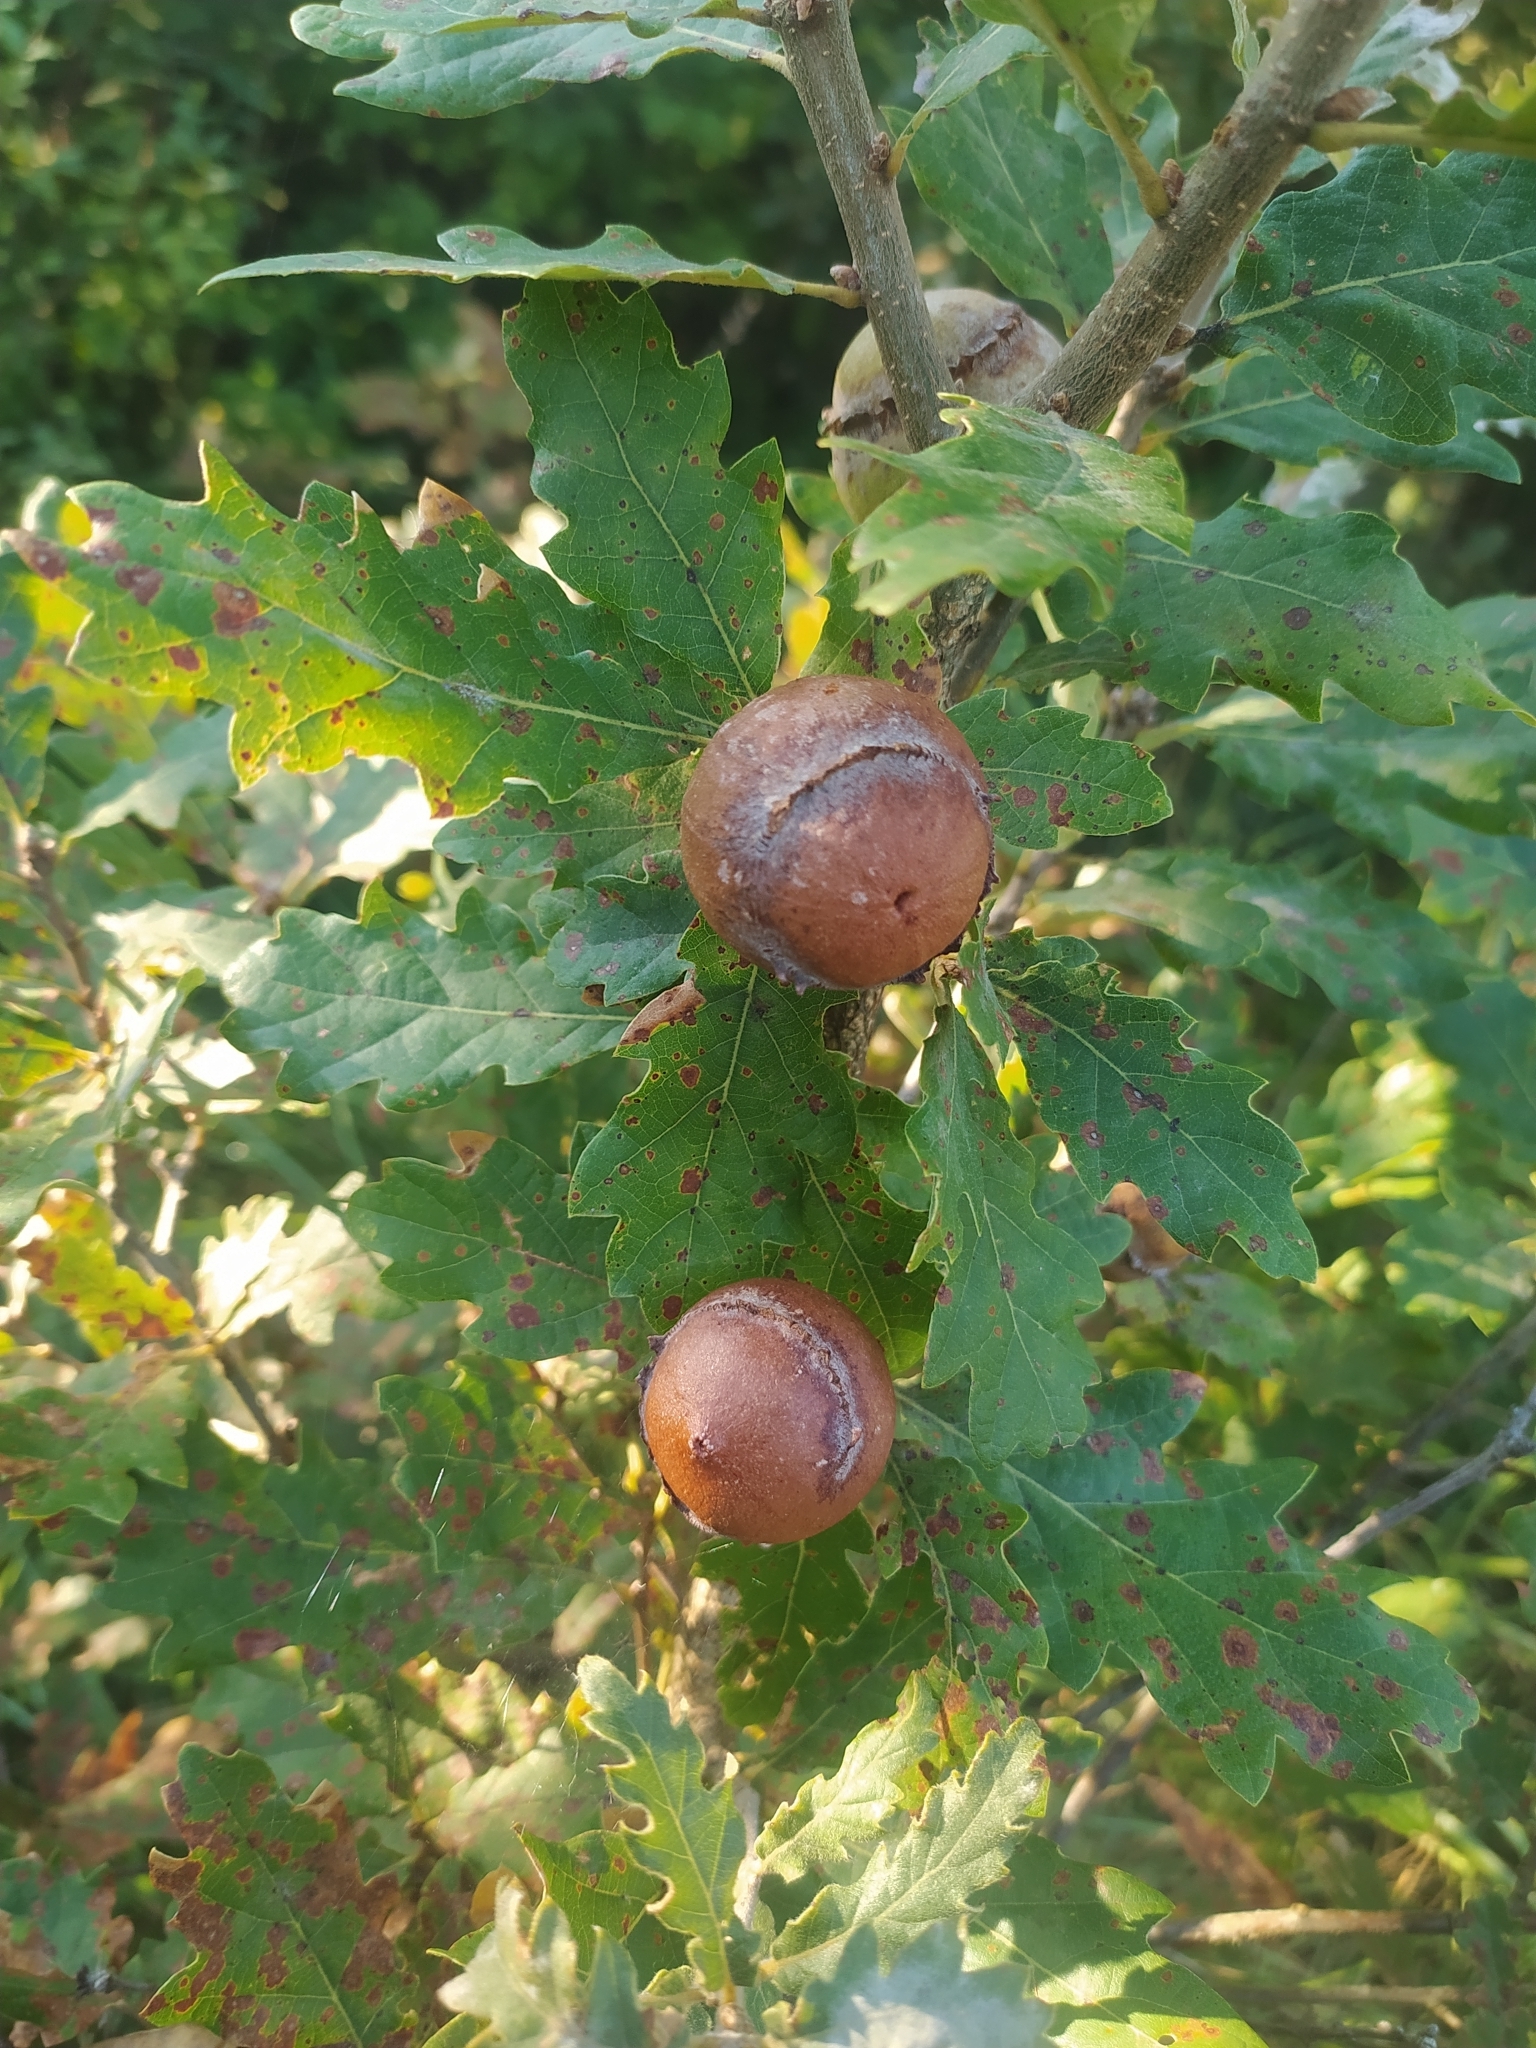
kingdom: Animalia
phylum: Arthropoda
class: Insecta
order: Hymenoptera
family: Cynipidae
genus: Andricus
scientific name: Andricus quercustozae
